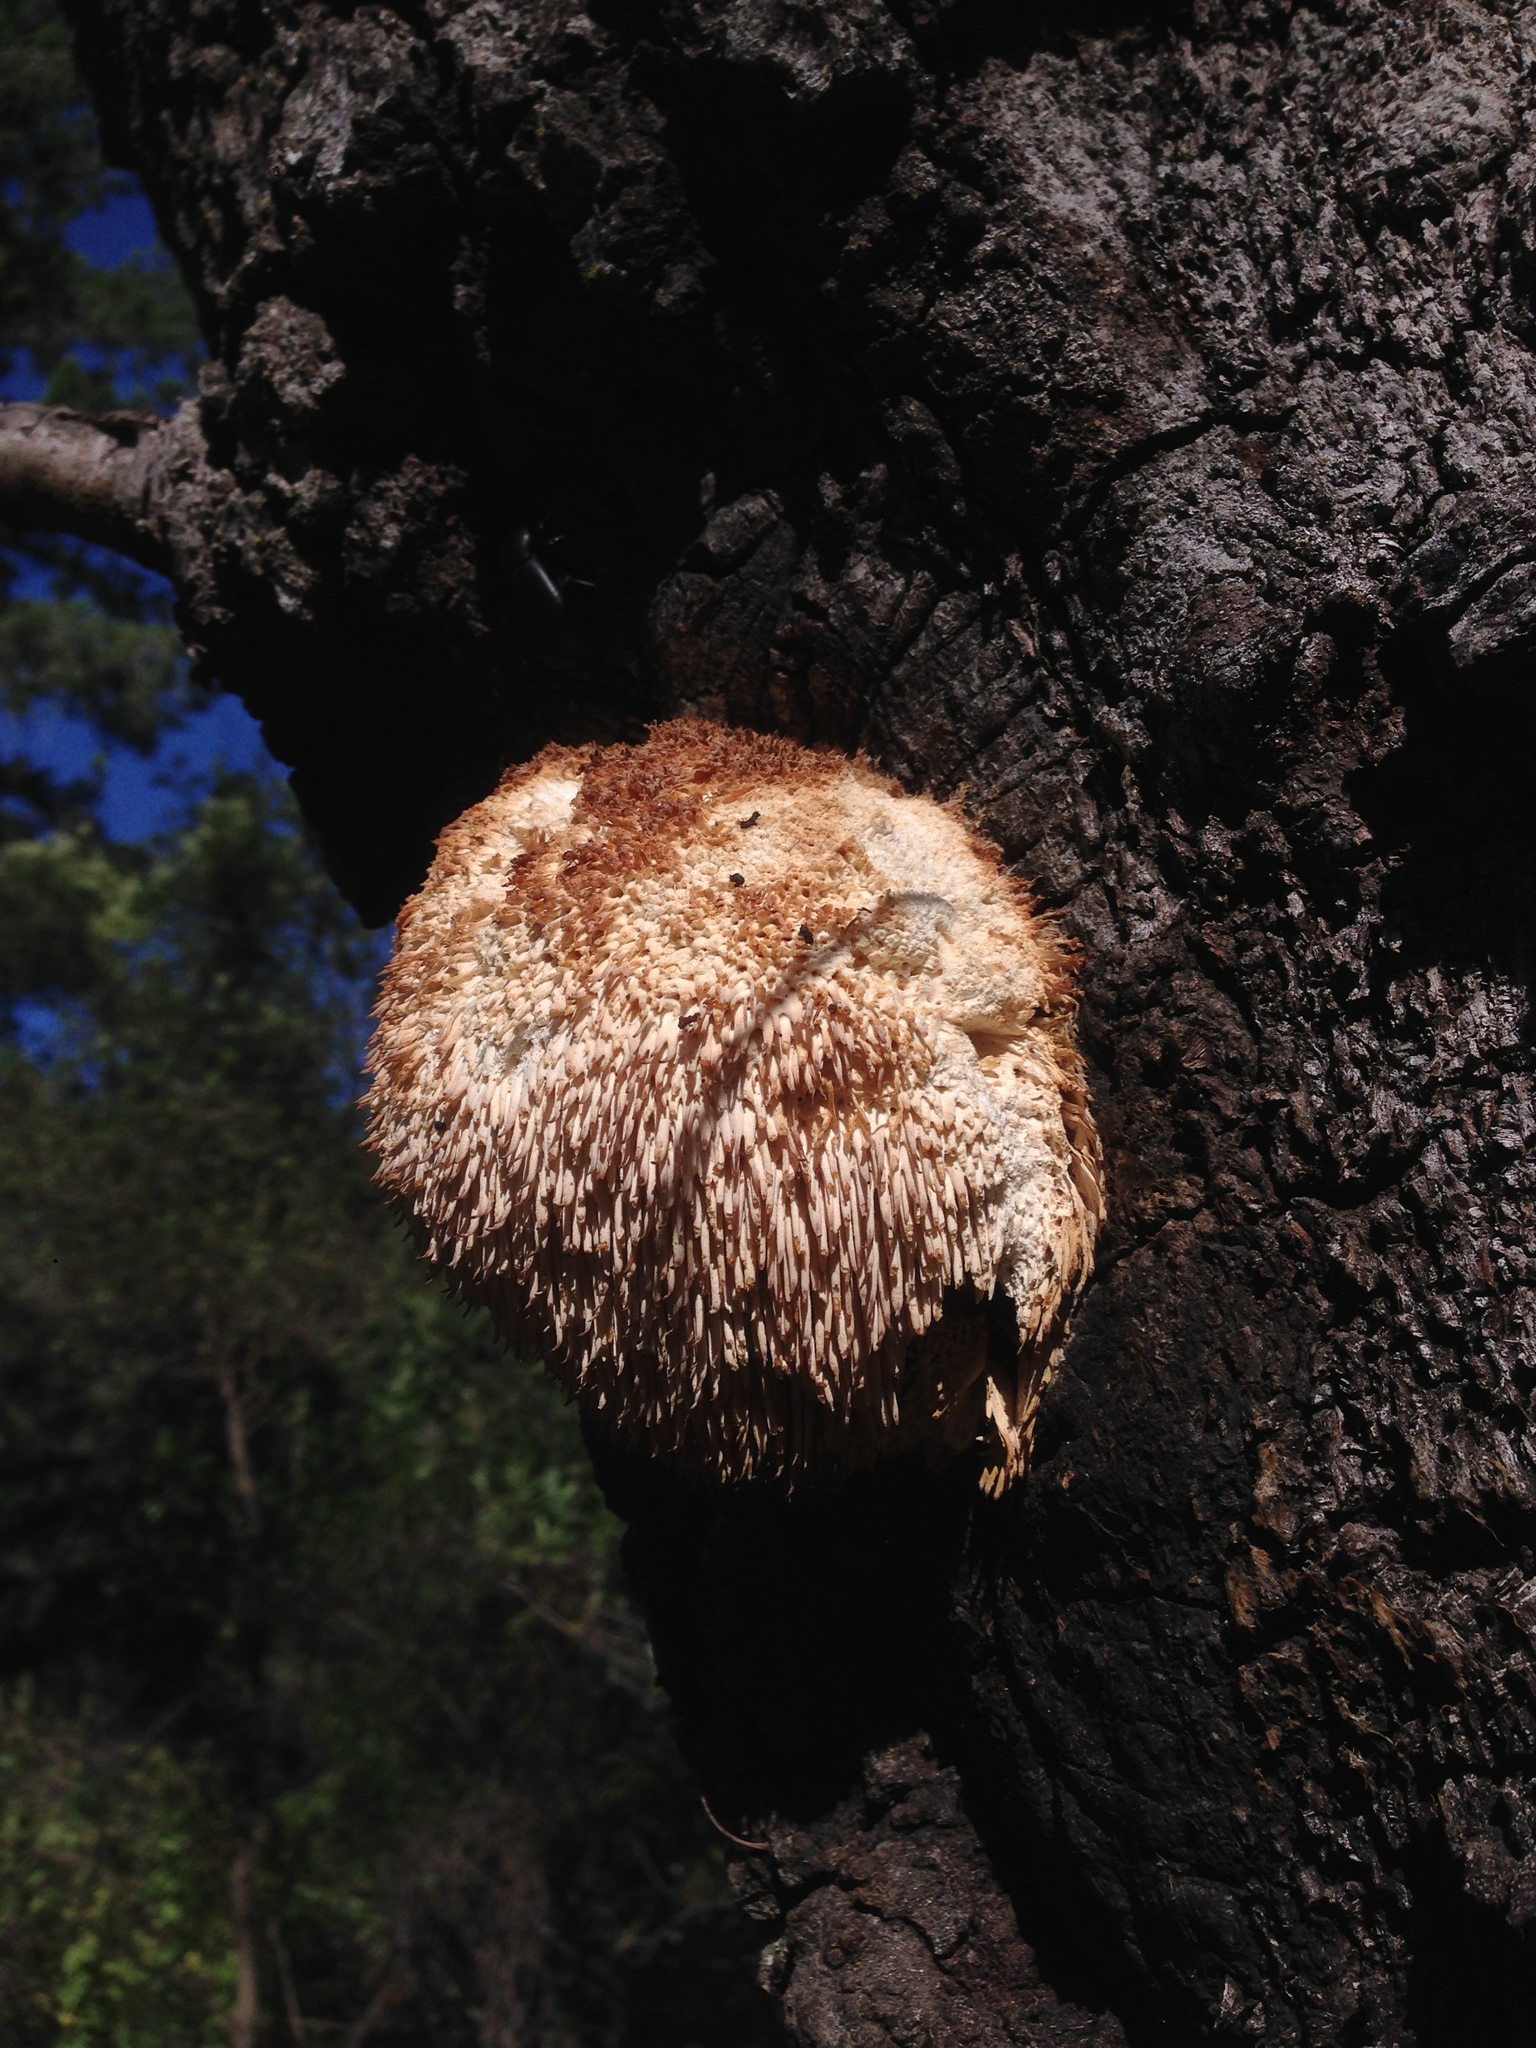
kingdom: Fungi
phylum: Basidiomycota
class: Agaricomycetes
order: Russulales
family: Hericiaceae
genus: Hericium
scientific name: Hericium erinaceus
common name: Bearded tooth
